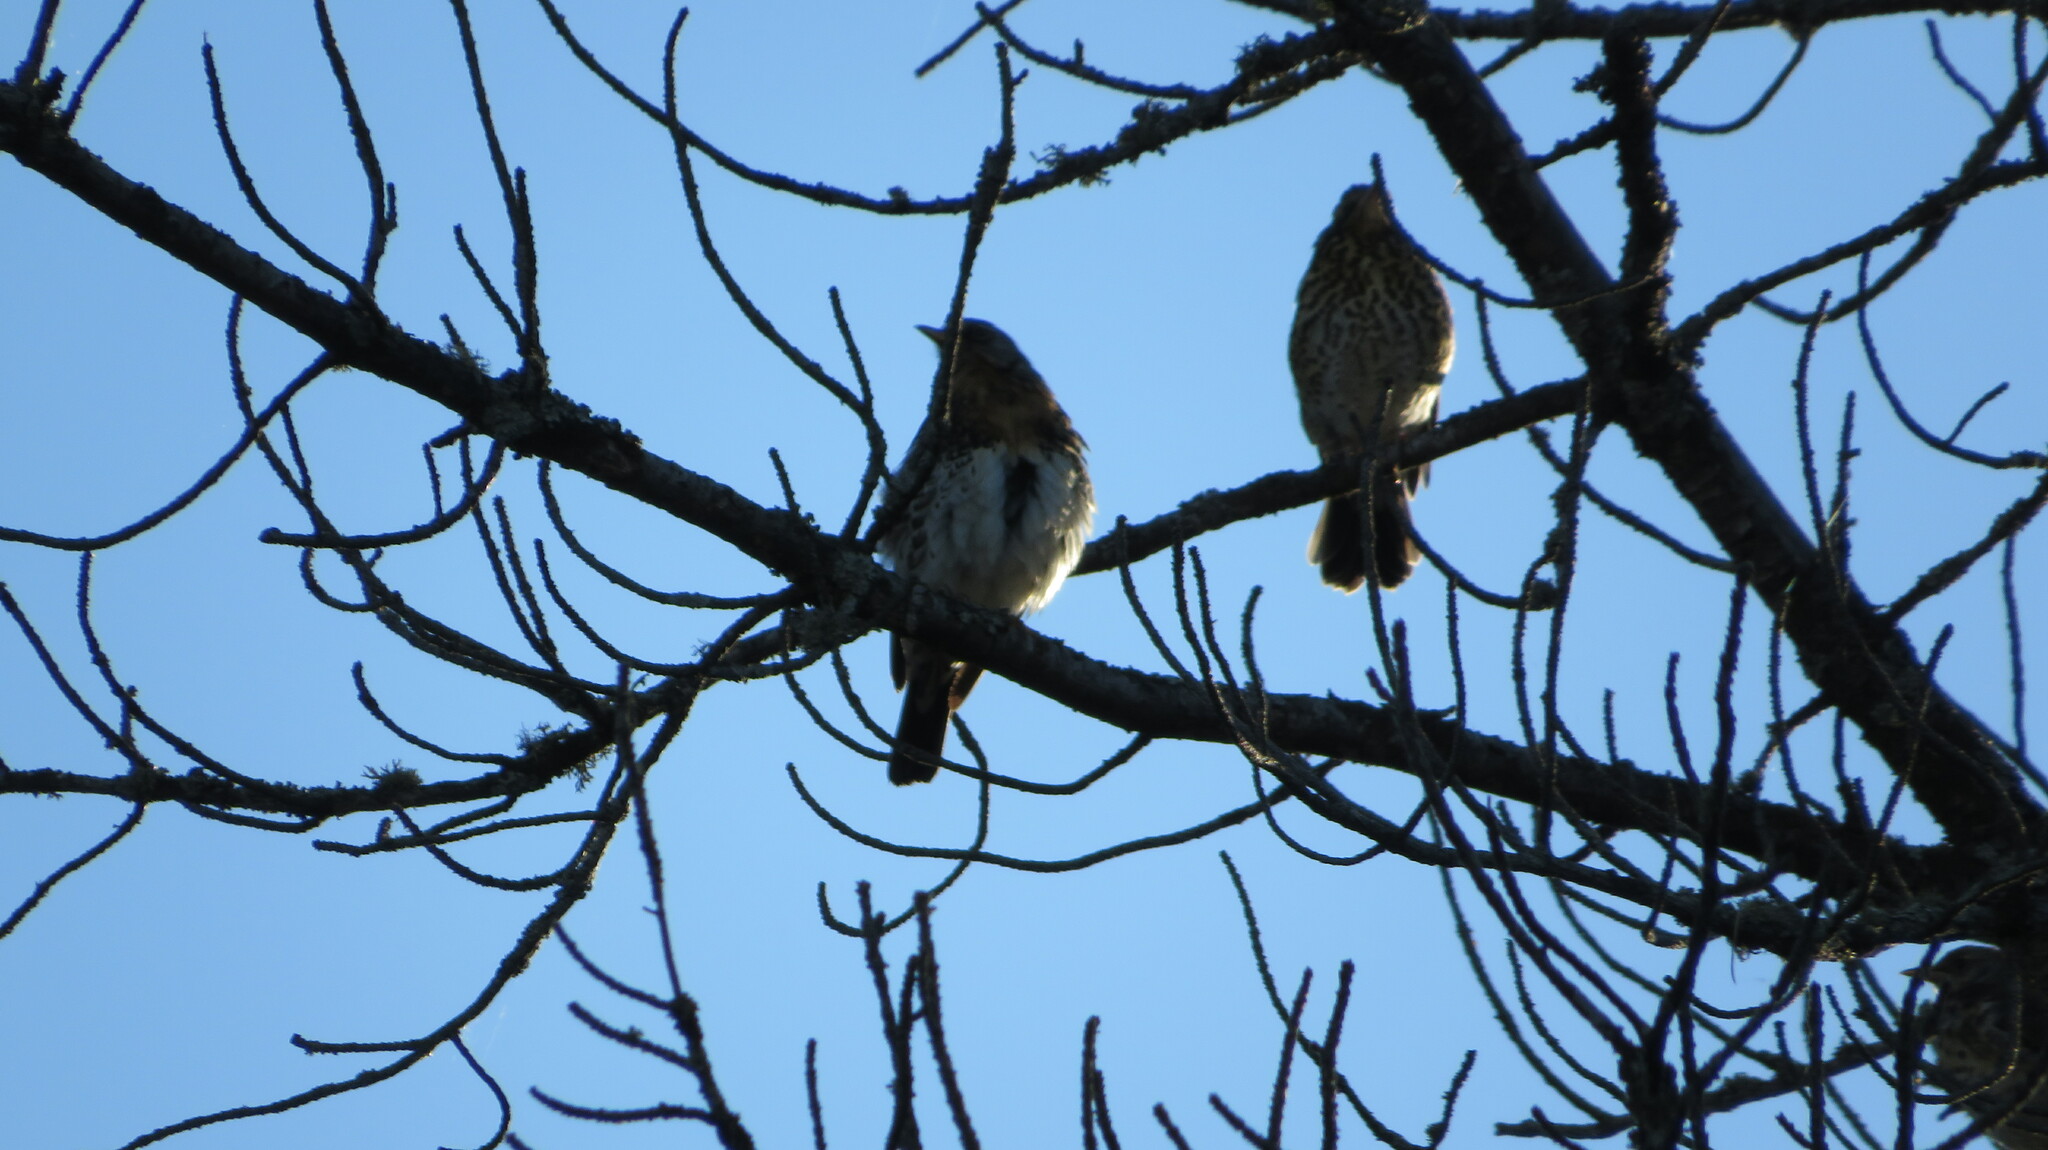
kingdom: Animalia
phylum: Chordata
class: Aves
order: Passeriformes
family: Turdidae
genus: Turdus
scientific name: Turdus philomelos
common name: Song thrush
